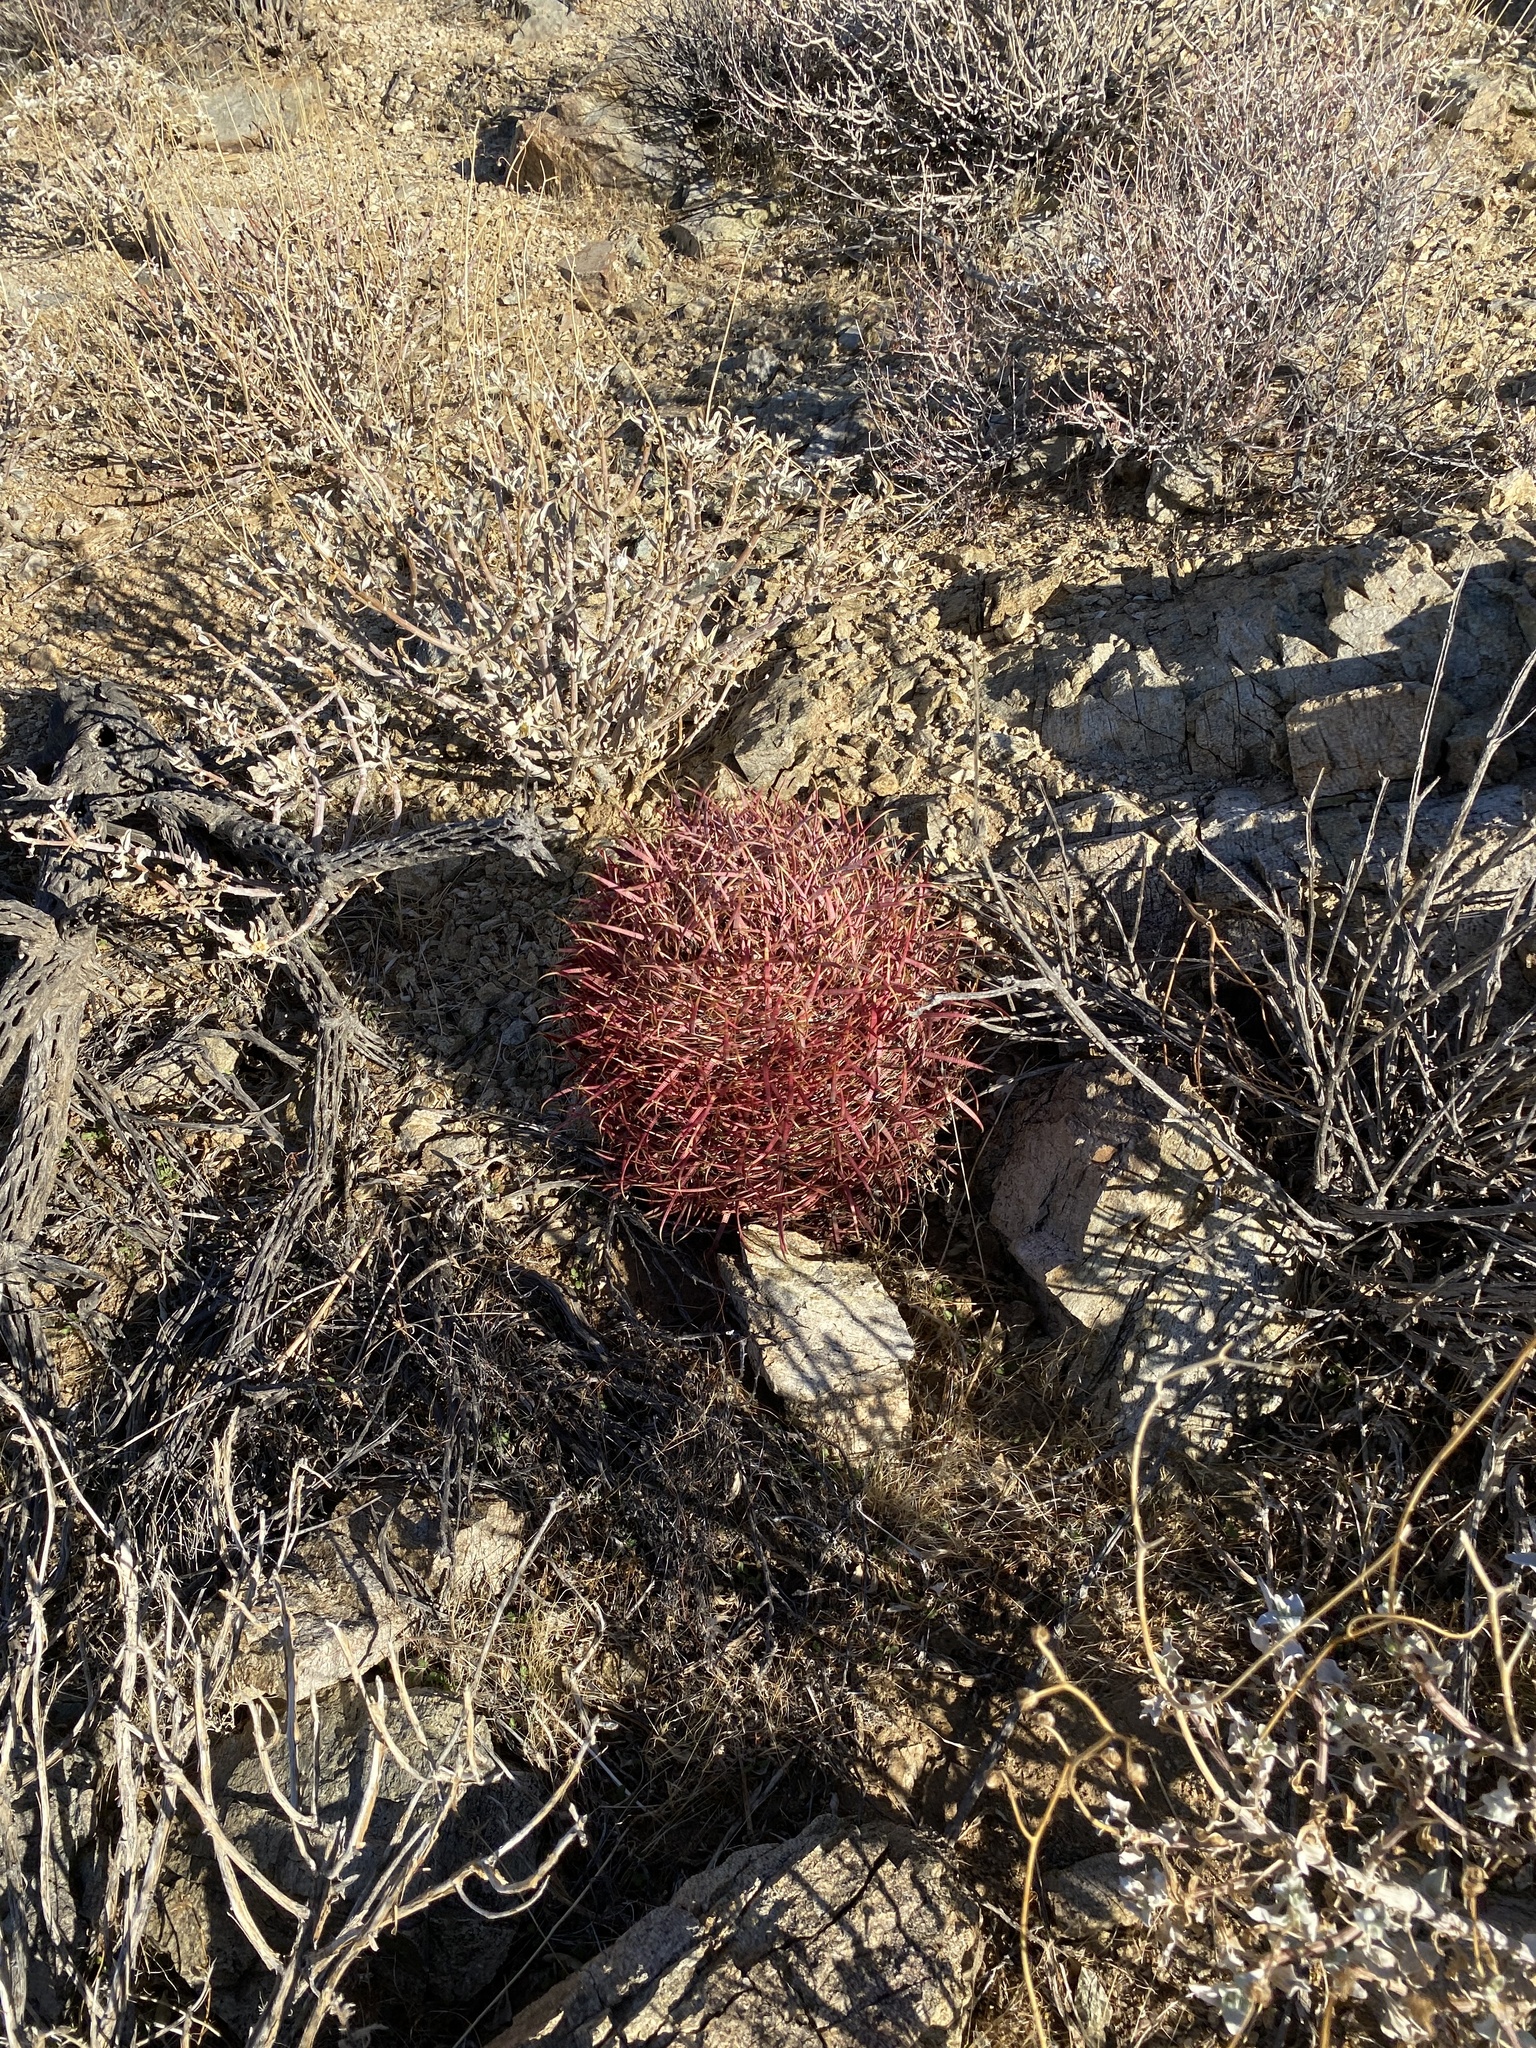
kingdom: Plantae
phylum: Tracheophyta
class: Magnoliopsida
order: Caryophyllales
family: Cactaceae
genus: Ferocactus
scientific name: Ferocactus cylindraceus
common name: California barrel cactus
